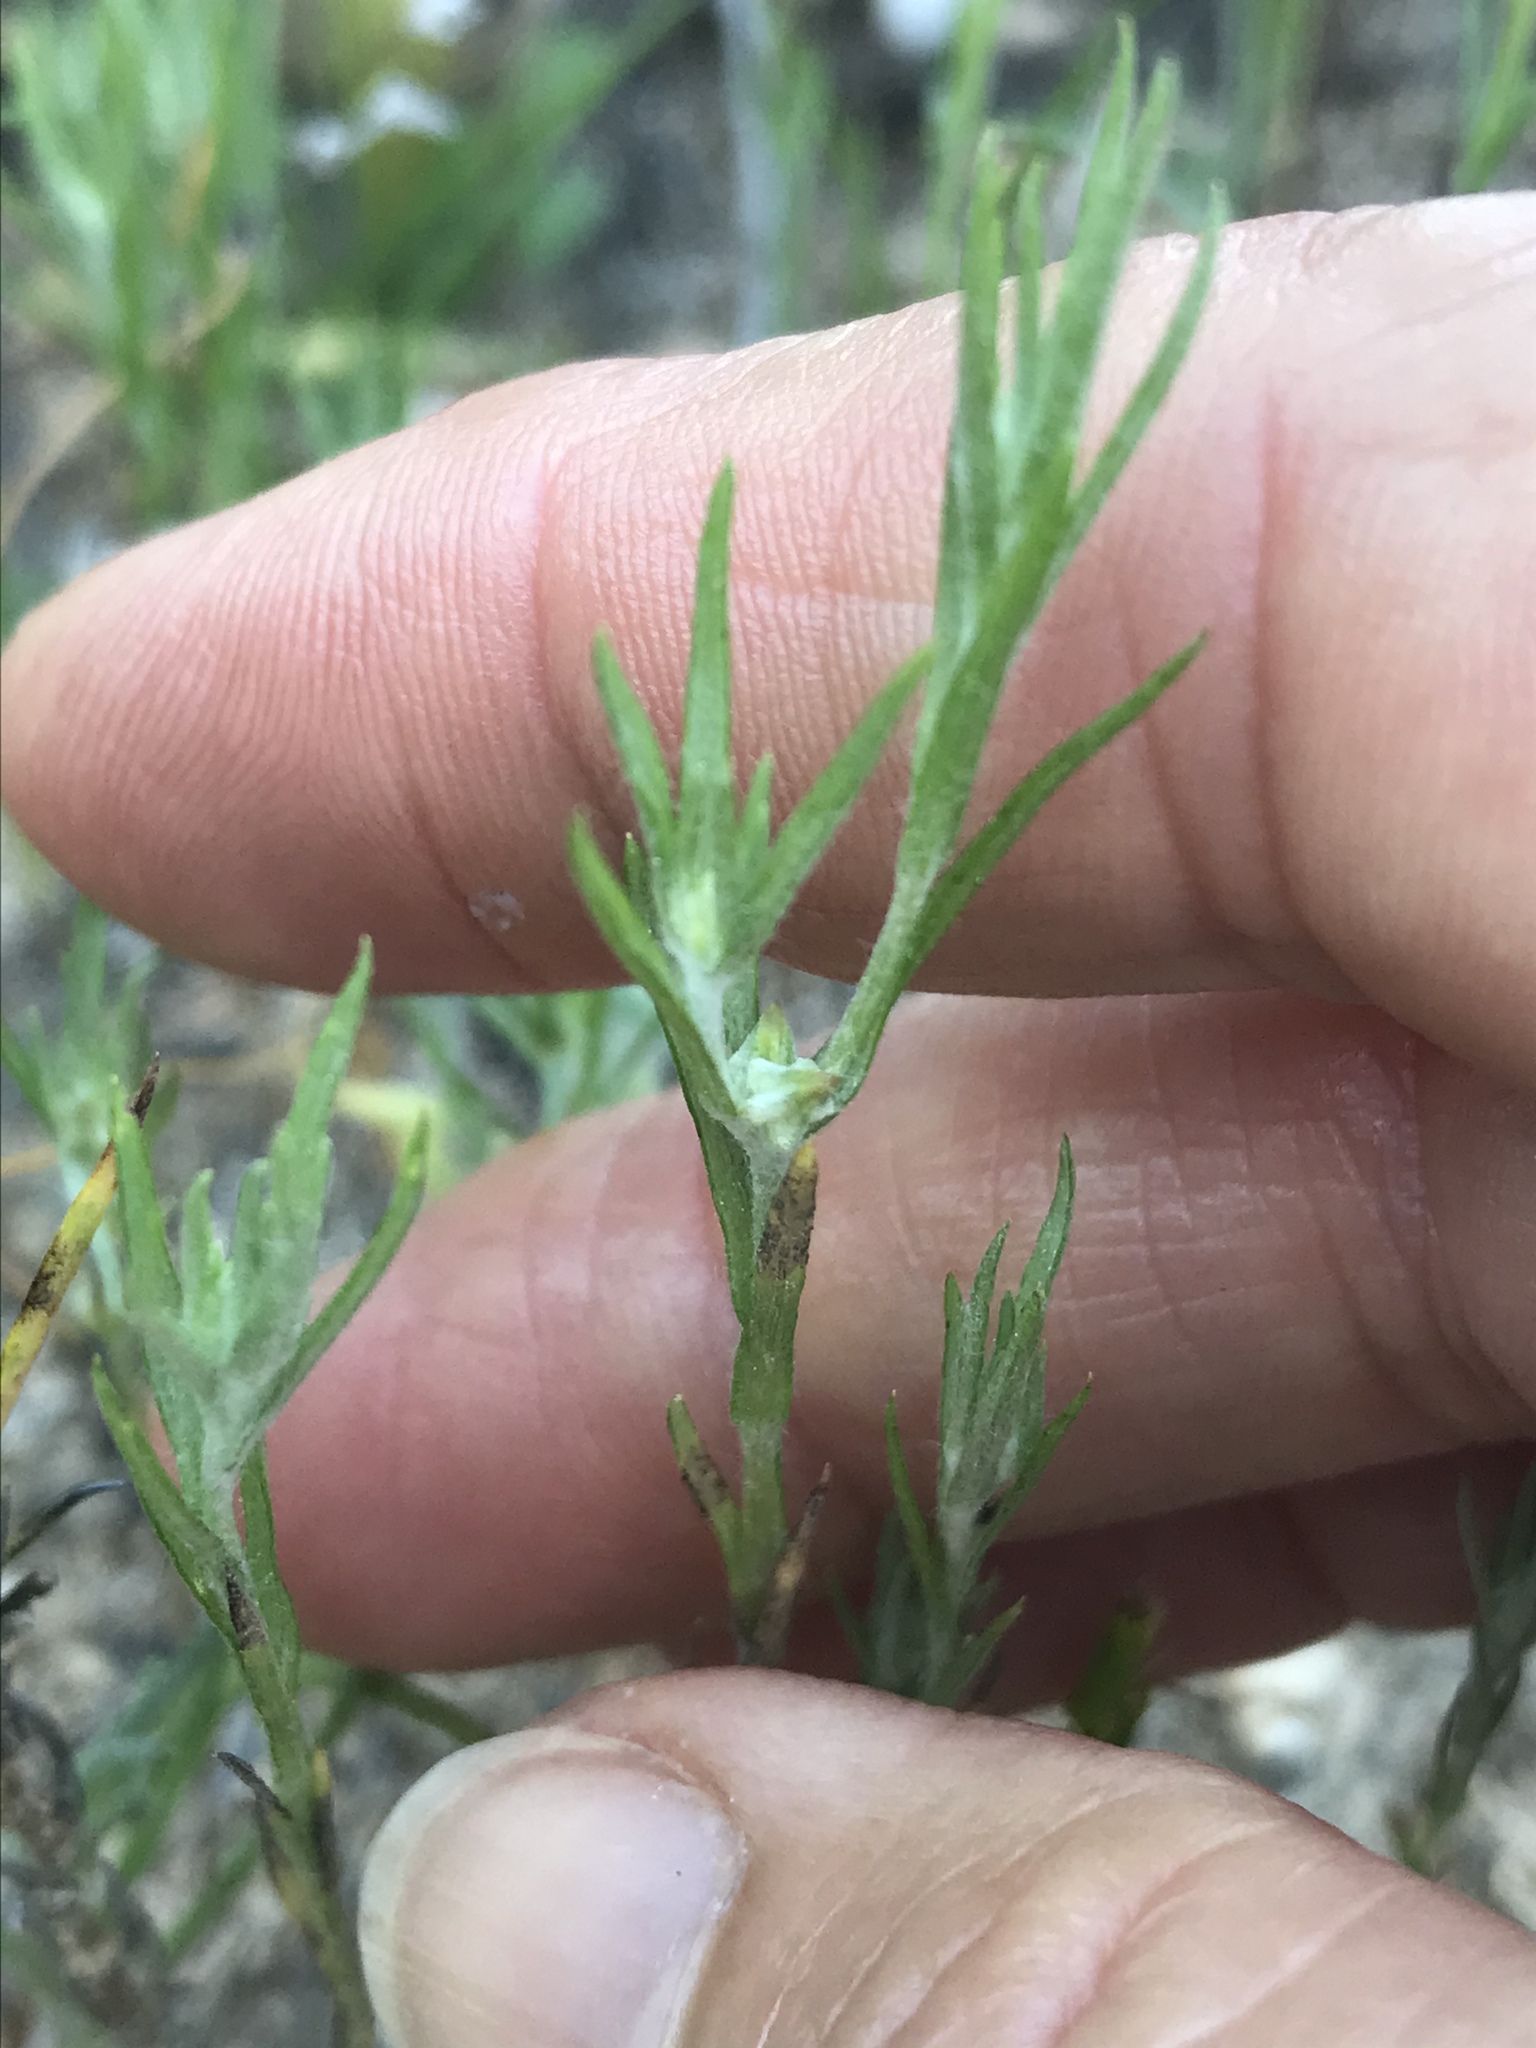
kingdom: Plantae
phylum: Tracheophyta
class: Magnoliopsida
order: Asterales
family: Asteraceae
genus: Logfia
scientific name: Logfia gallica
